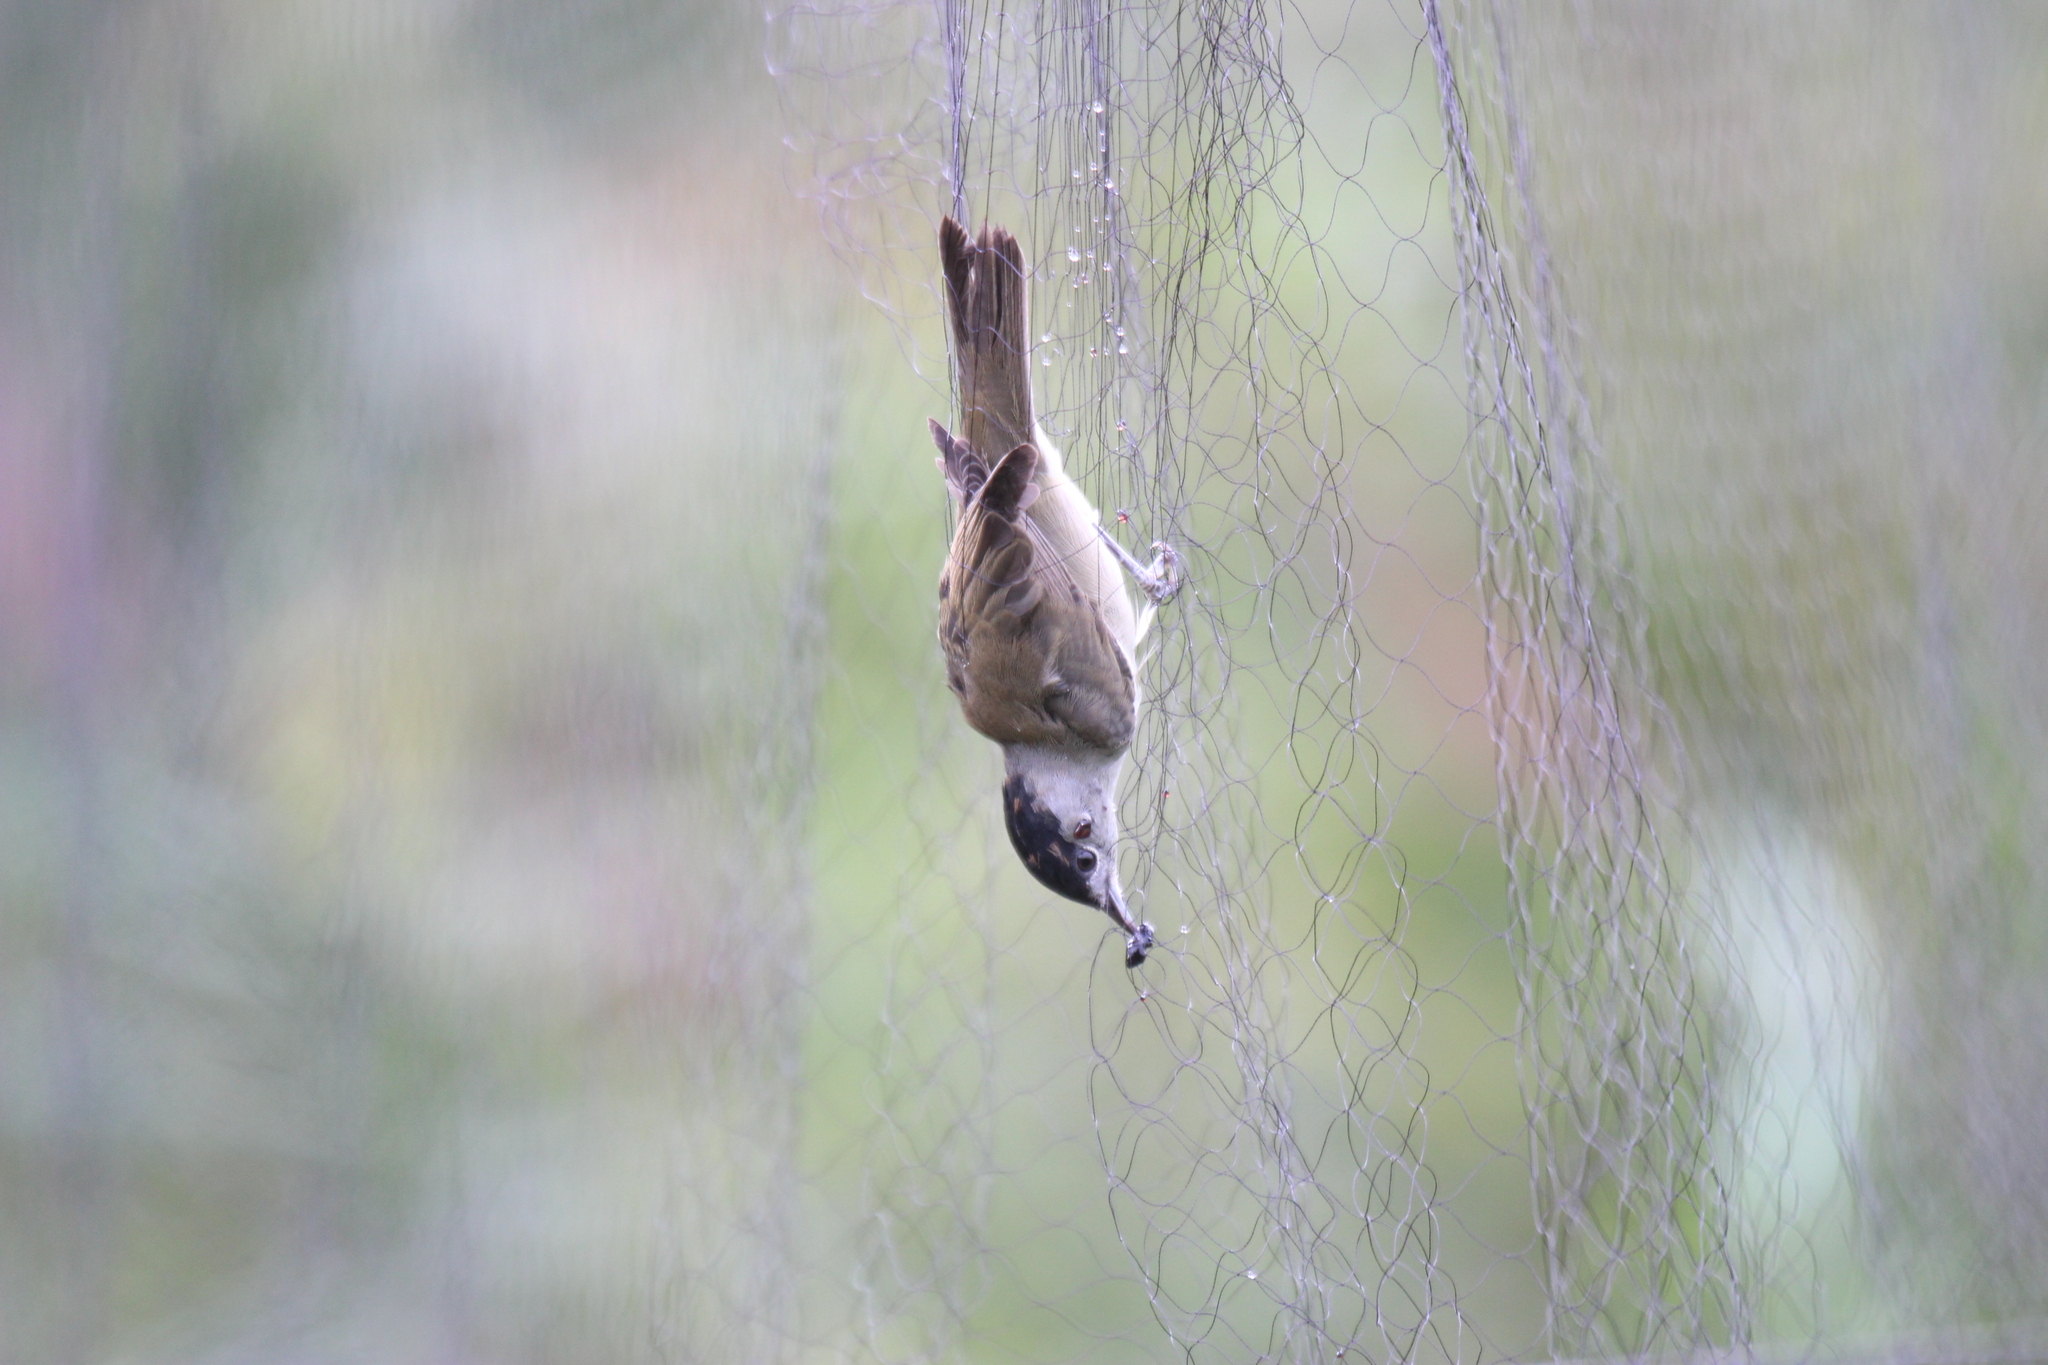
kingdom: Animalia
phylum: Chordata
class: Aves
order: Passeriformes
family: Sylviidae
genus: Sylvia
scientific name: Sylvia atricapilla
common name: Eurasian blackcap
